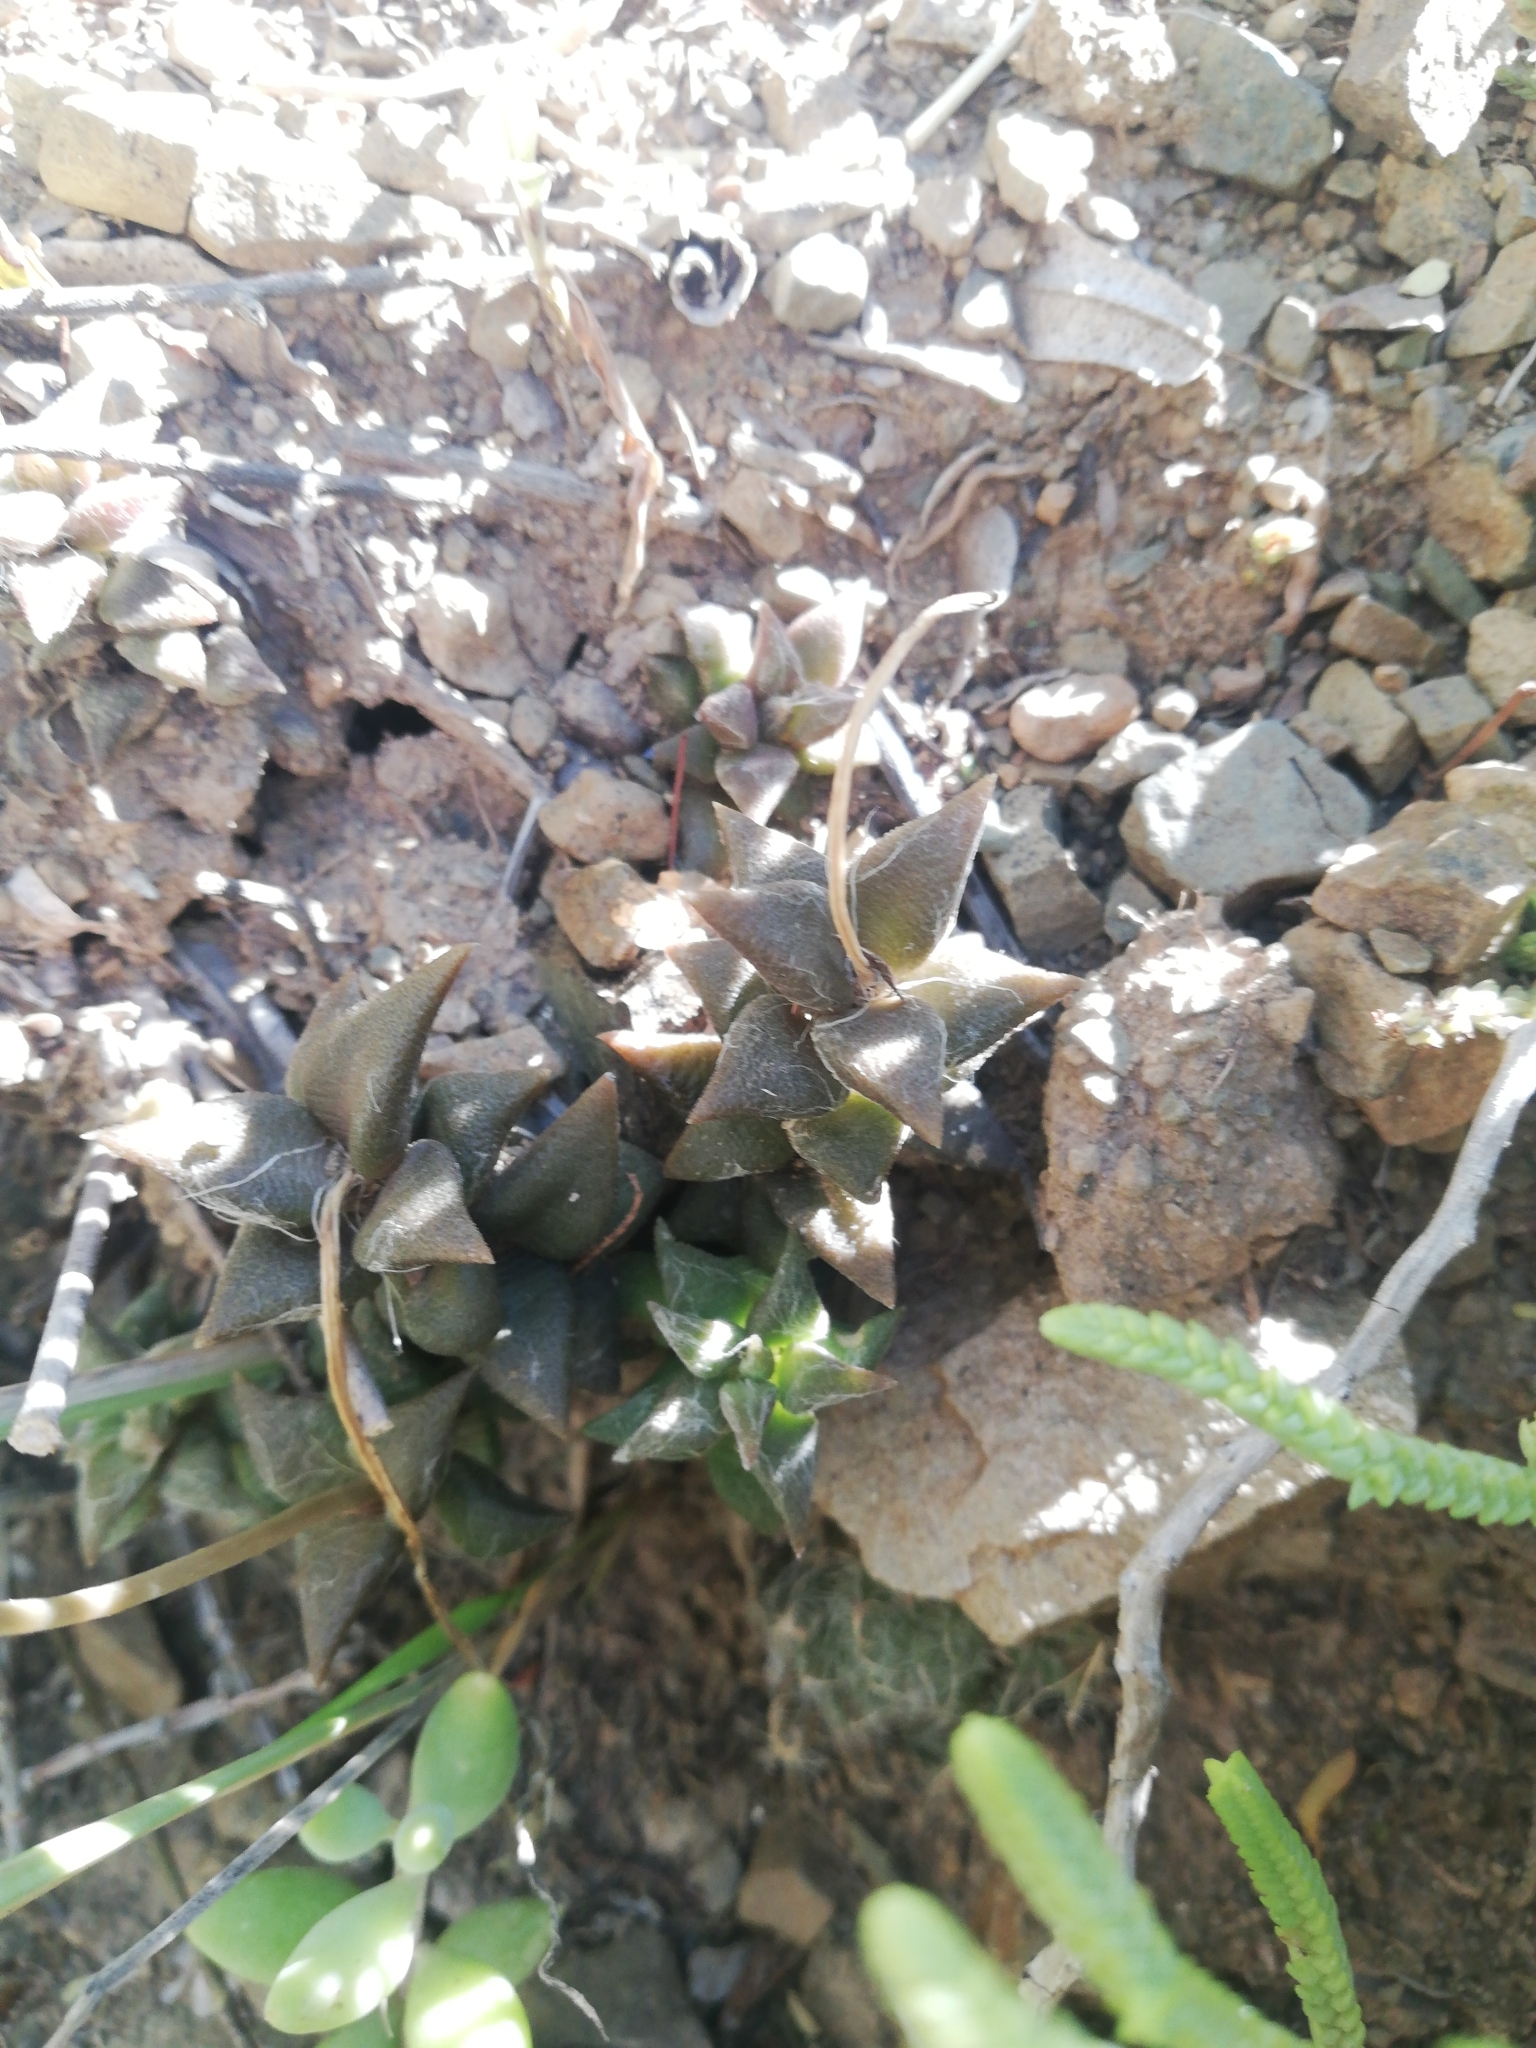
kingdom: Plantae
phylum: Tracheophyta
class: Magnoliopsida
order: Caryophyllales
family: Anacampserotaceae
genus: Anacampseros
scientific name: Anacampseros arachnoides
